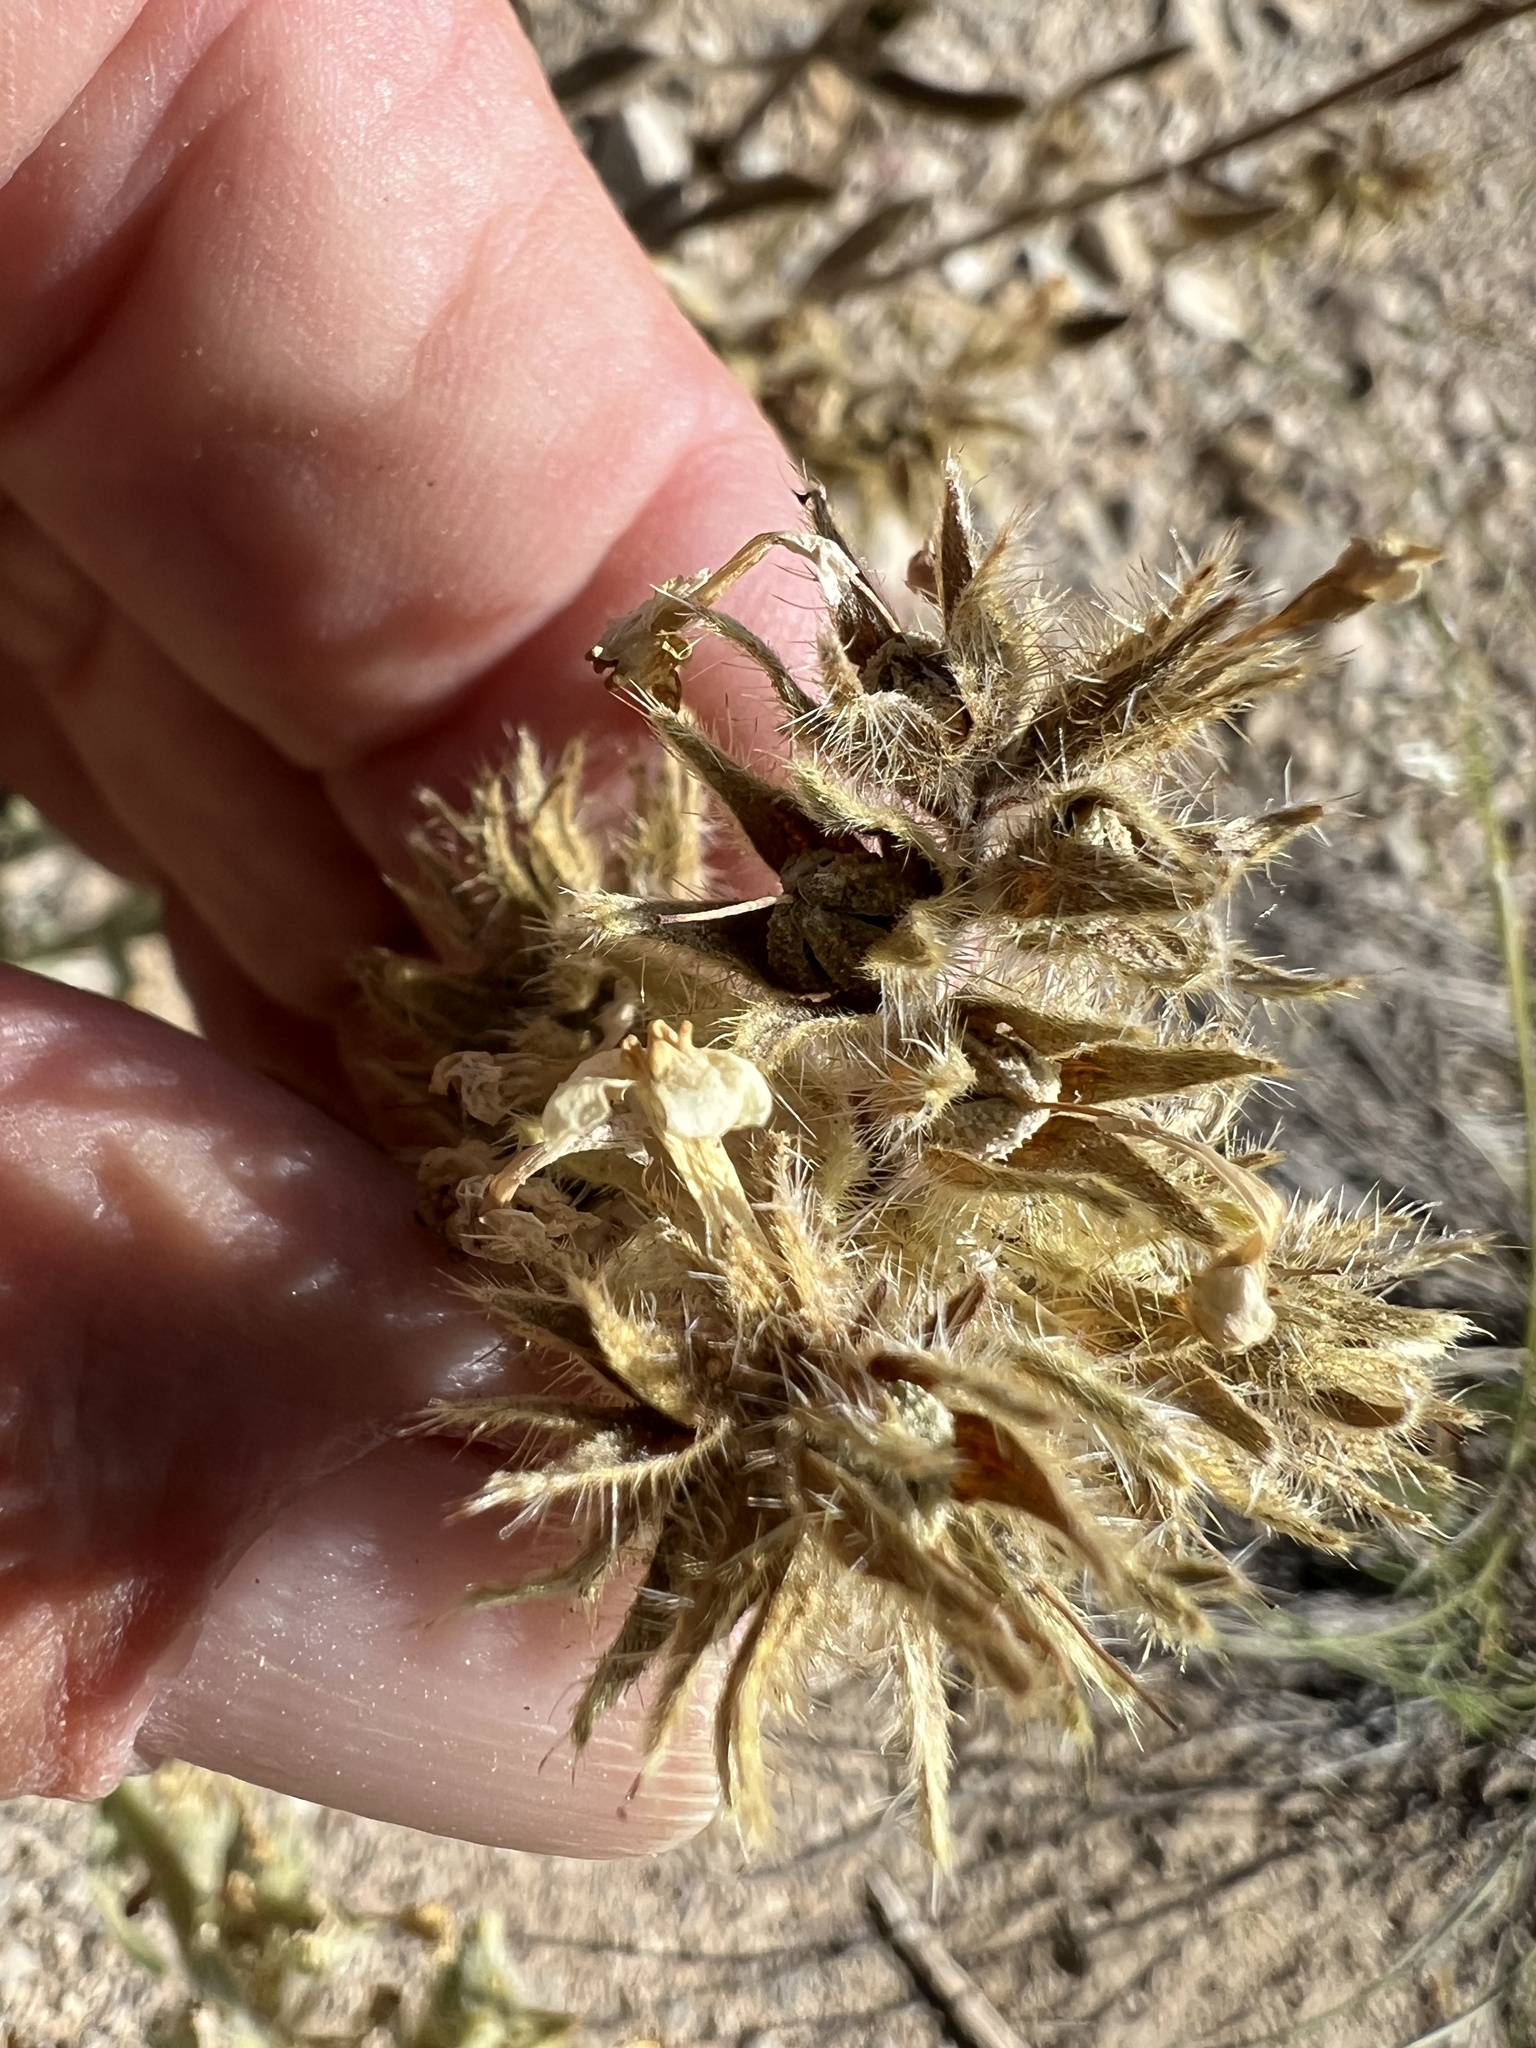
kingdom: Plantae
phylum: Tracheophyta
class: Magnoliopsida
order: Boraginales
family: Boraginaceae
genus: Oreocarya
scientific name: Oreocarya flavoculata
